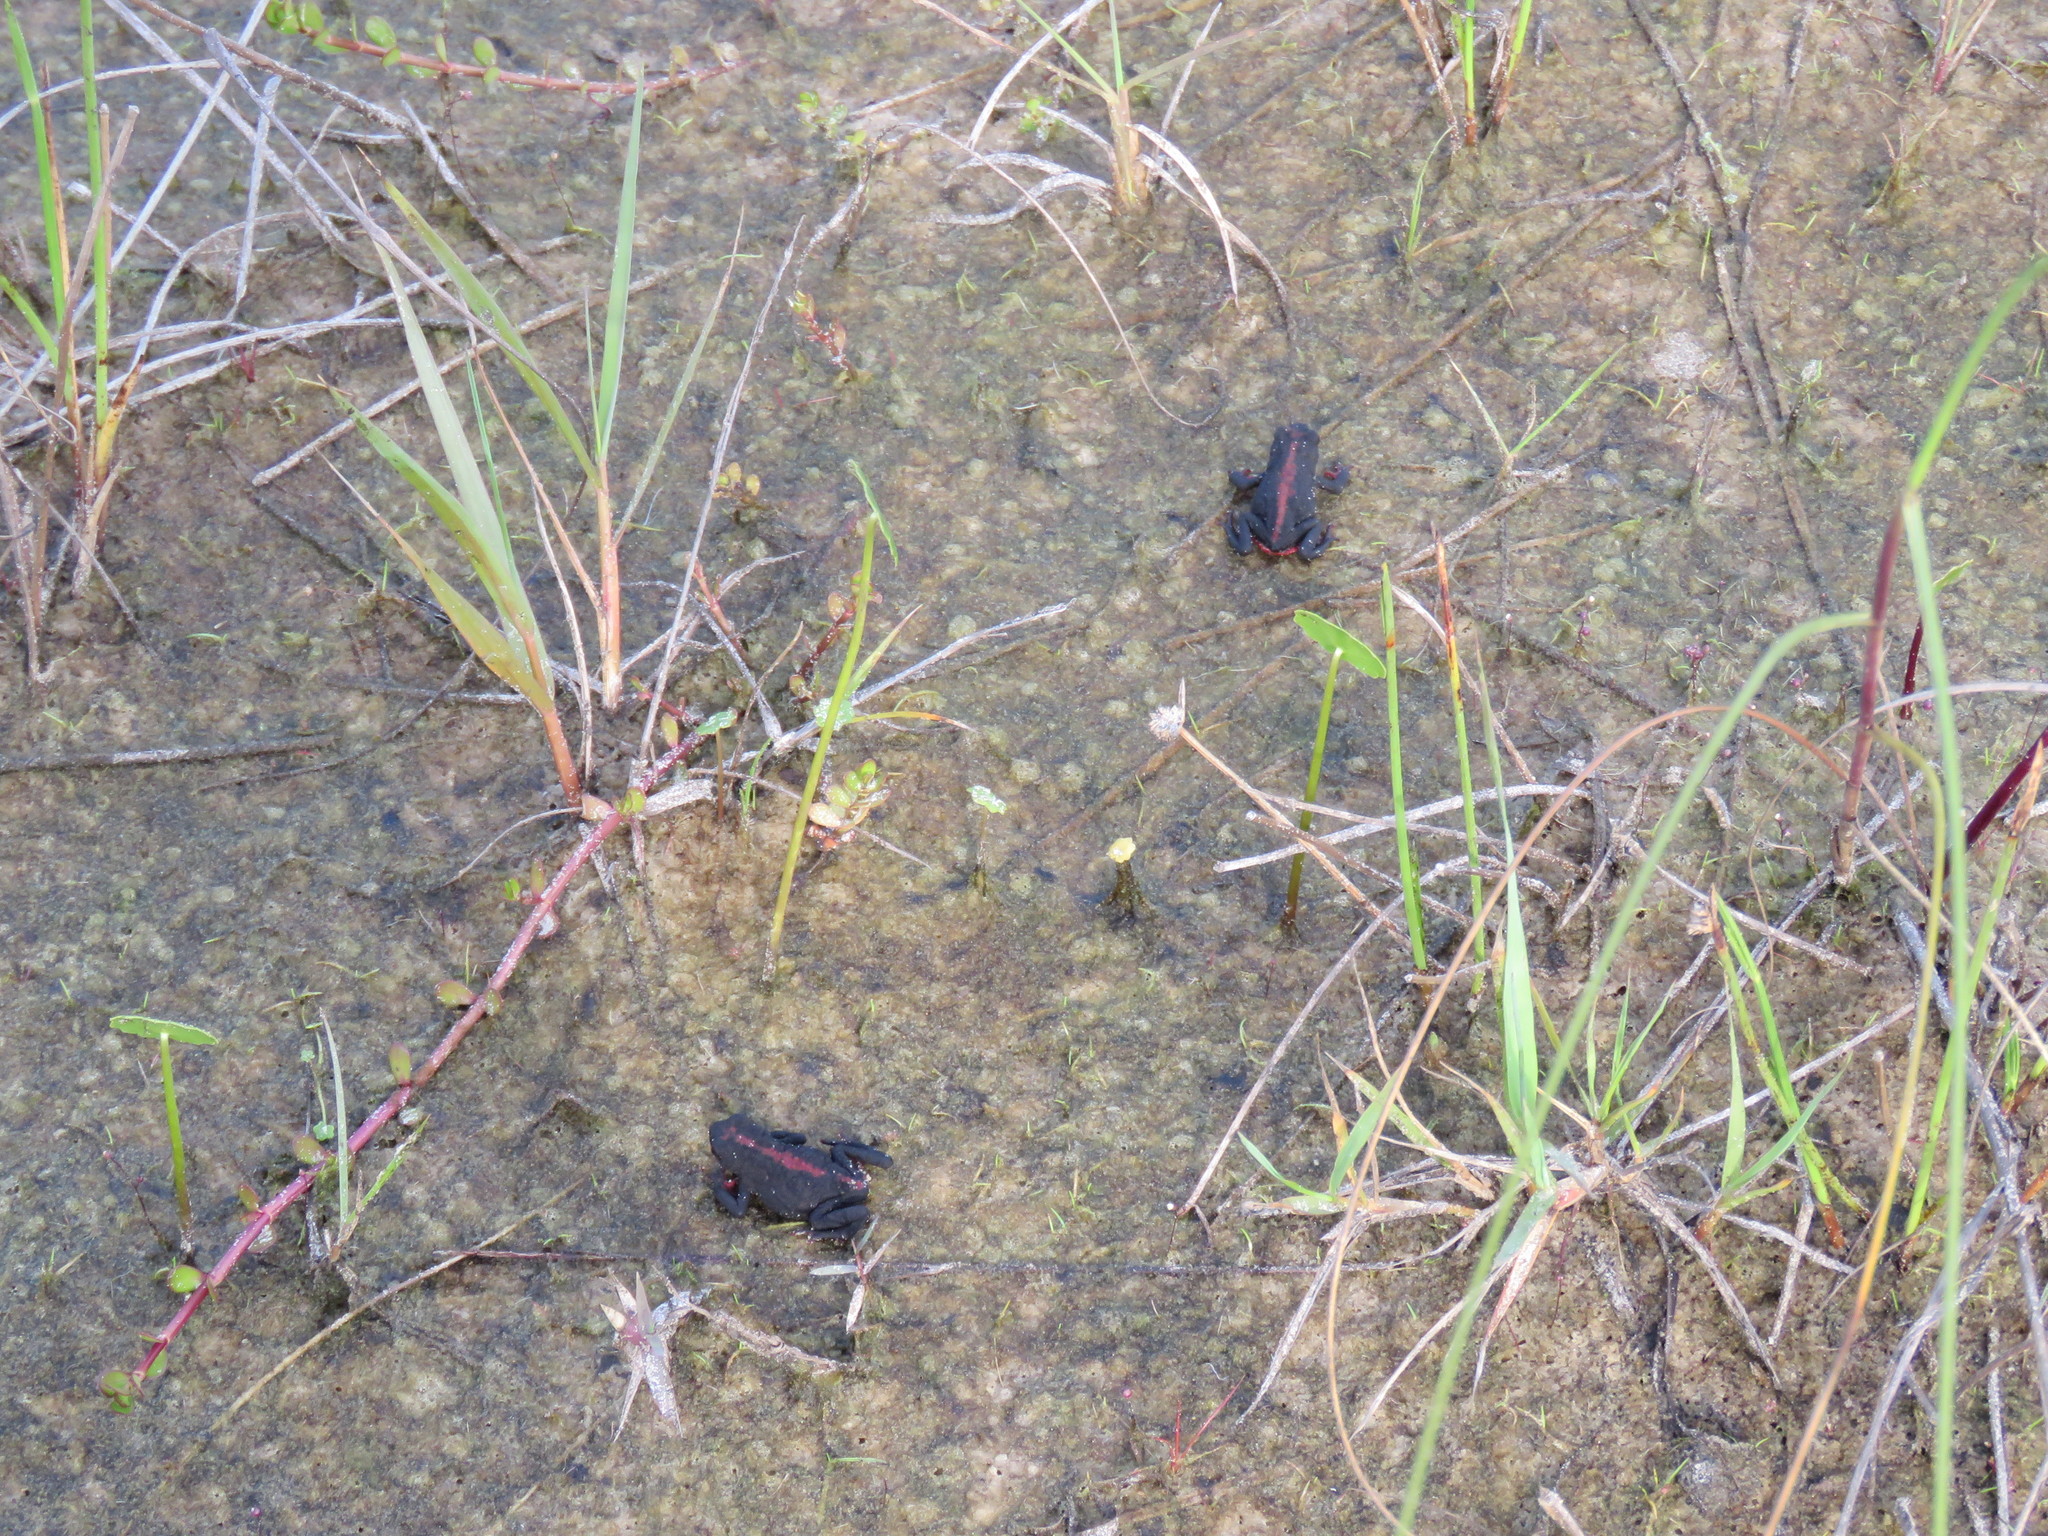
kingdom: Animalia
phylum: Chordata
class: Amphibia
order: Anura
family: Bufonidae
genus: Melanophryniscus
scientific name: Melanophryniscus dorsalis
